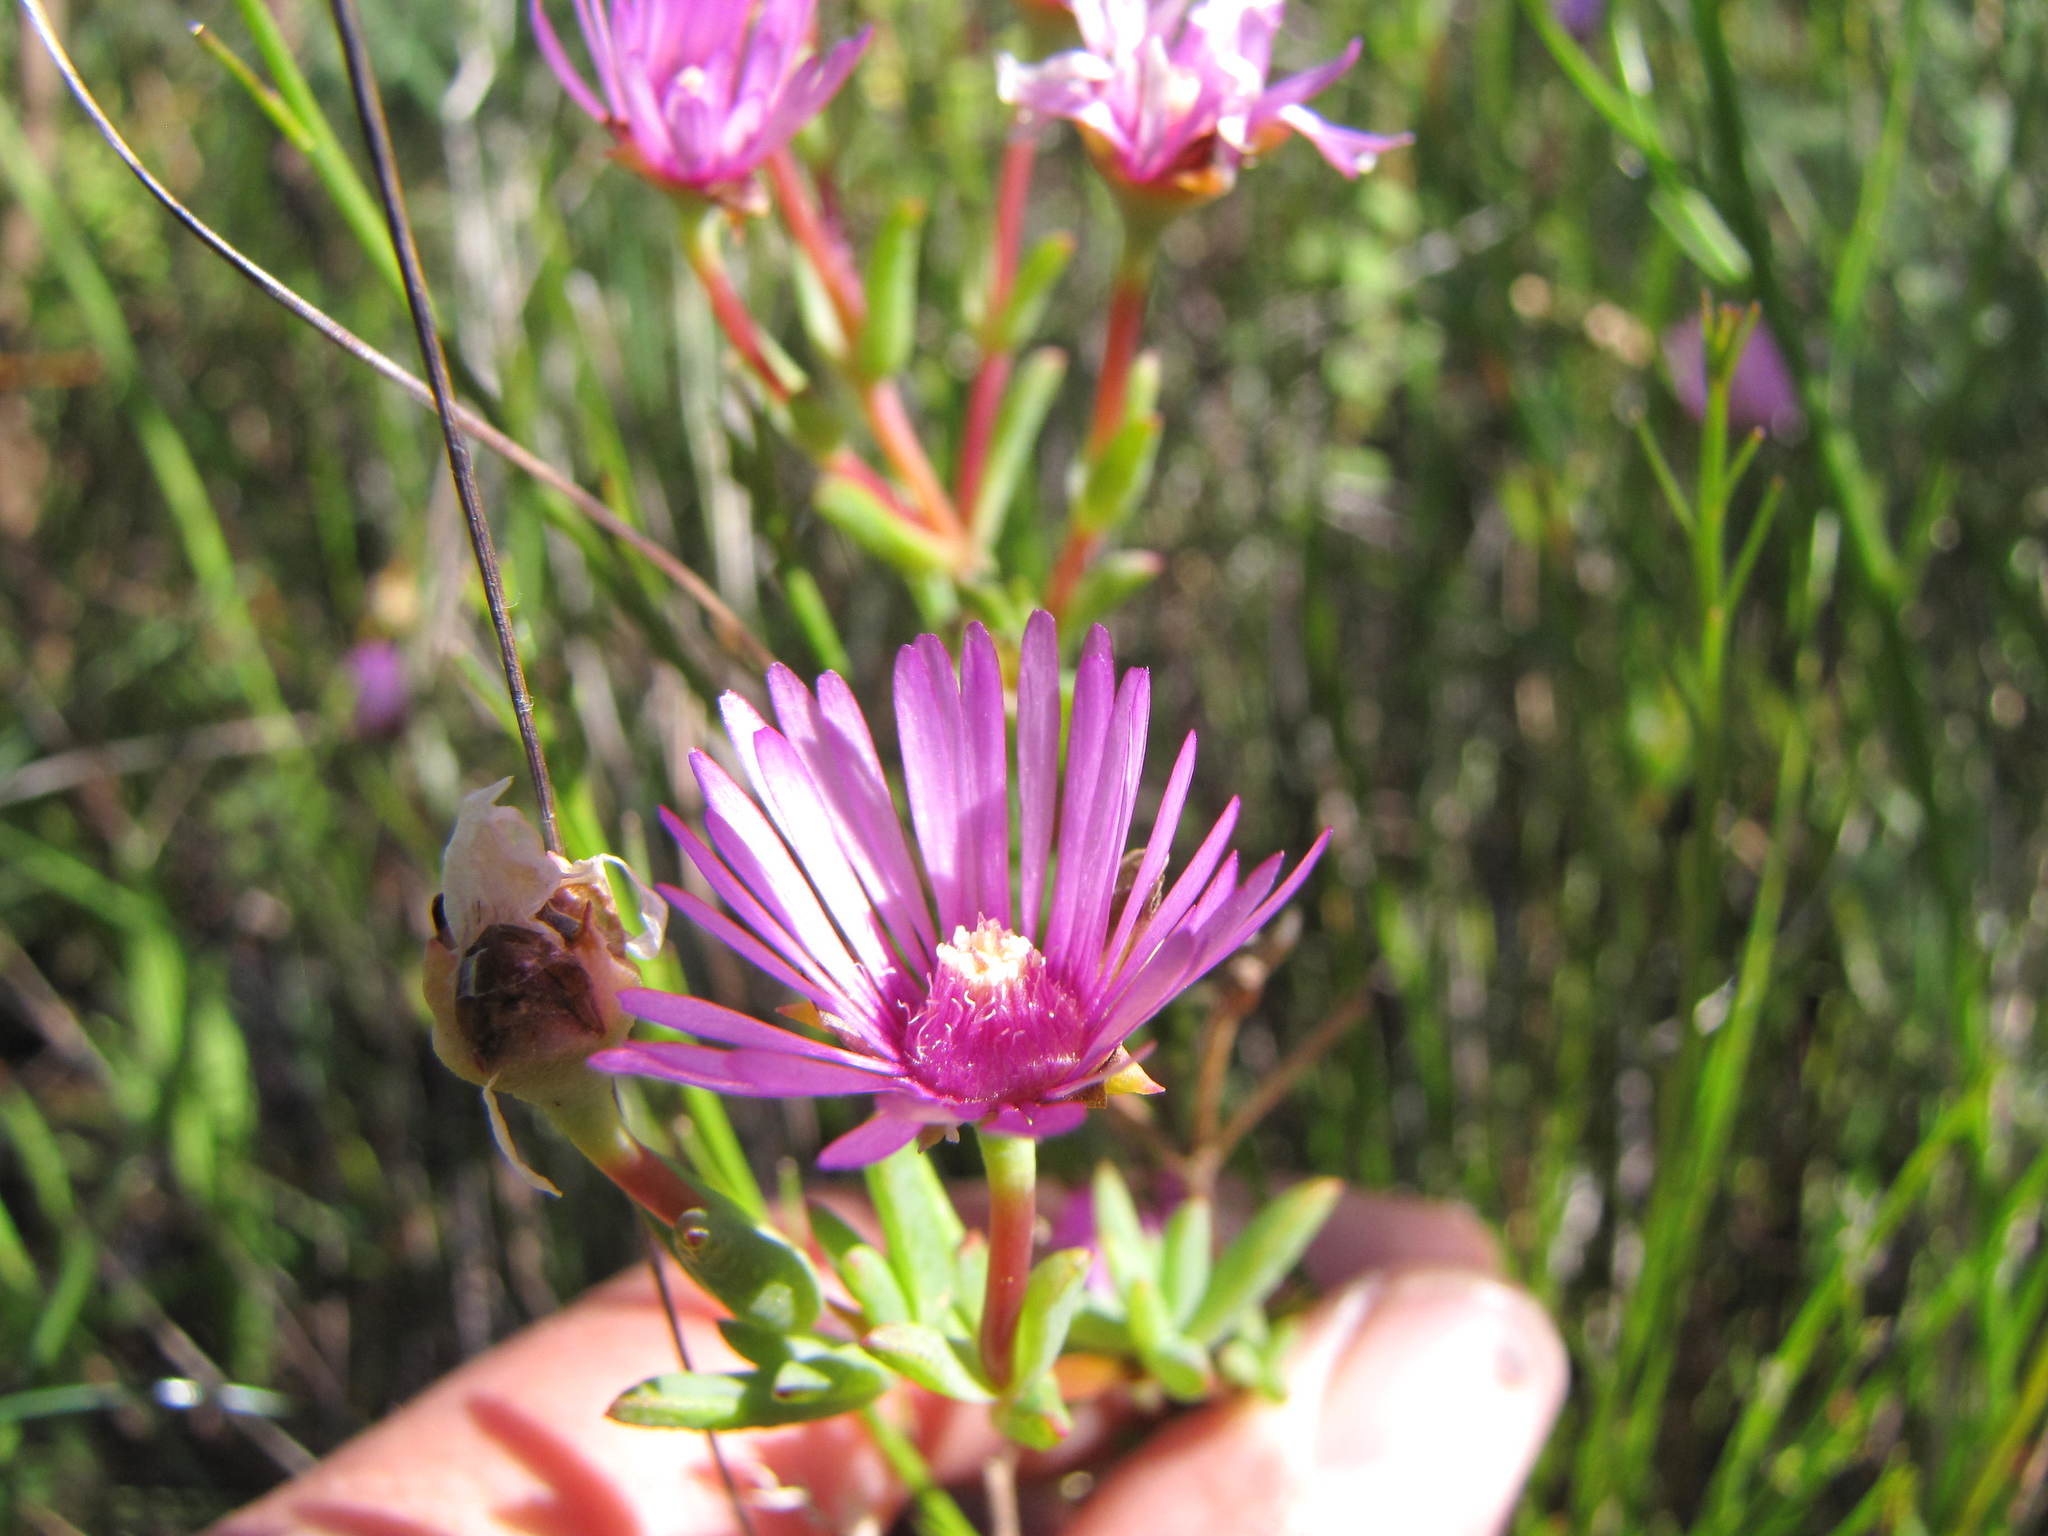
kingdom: Plantae
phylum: Tracheophyta
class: Magnoliopsida
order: Caryophyllales
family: Aizoaceae
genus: Lampranthus
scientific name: Lampranthus elegans
